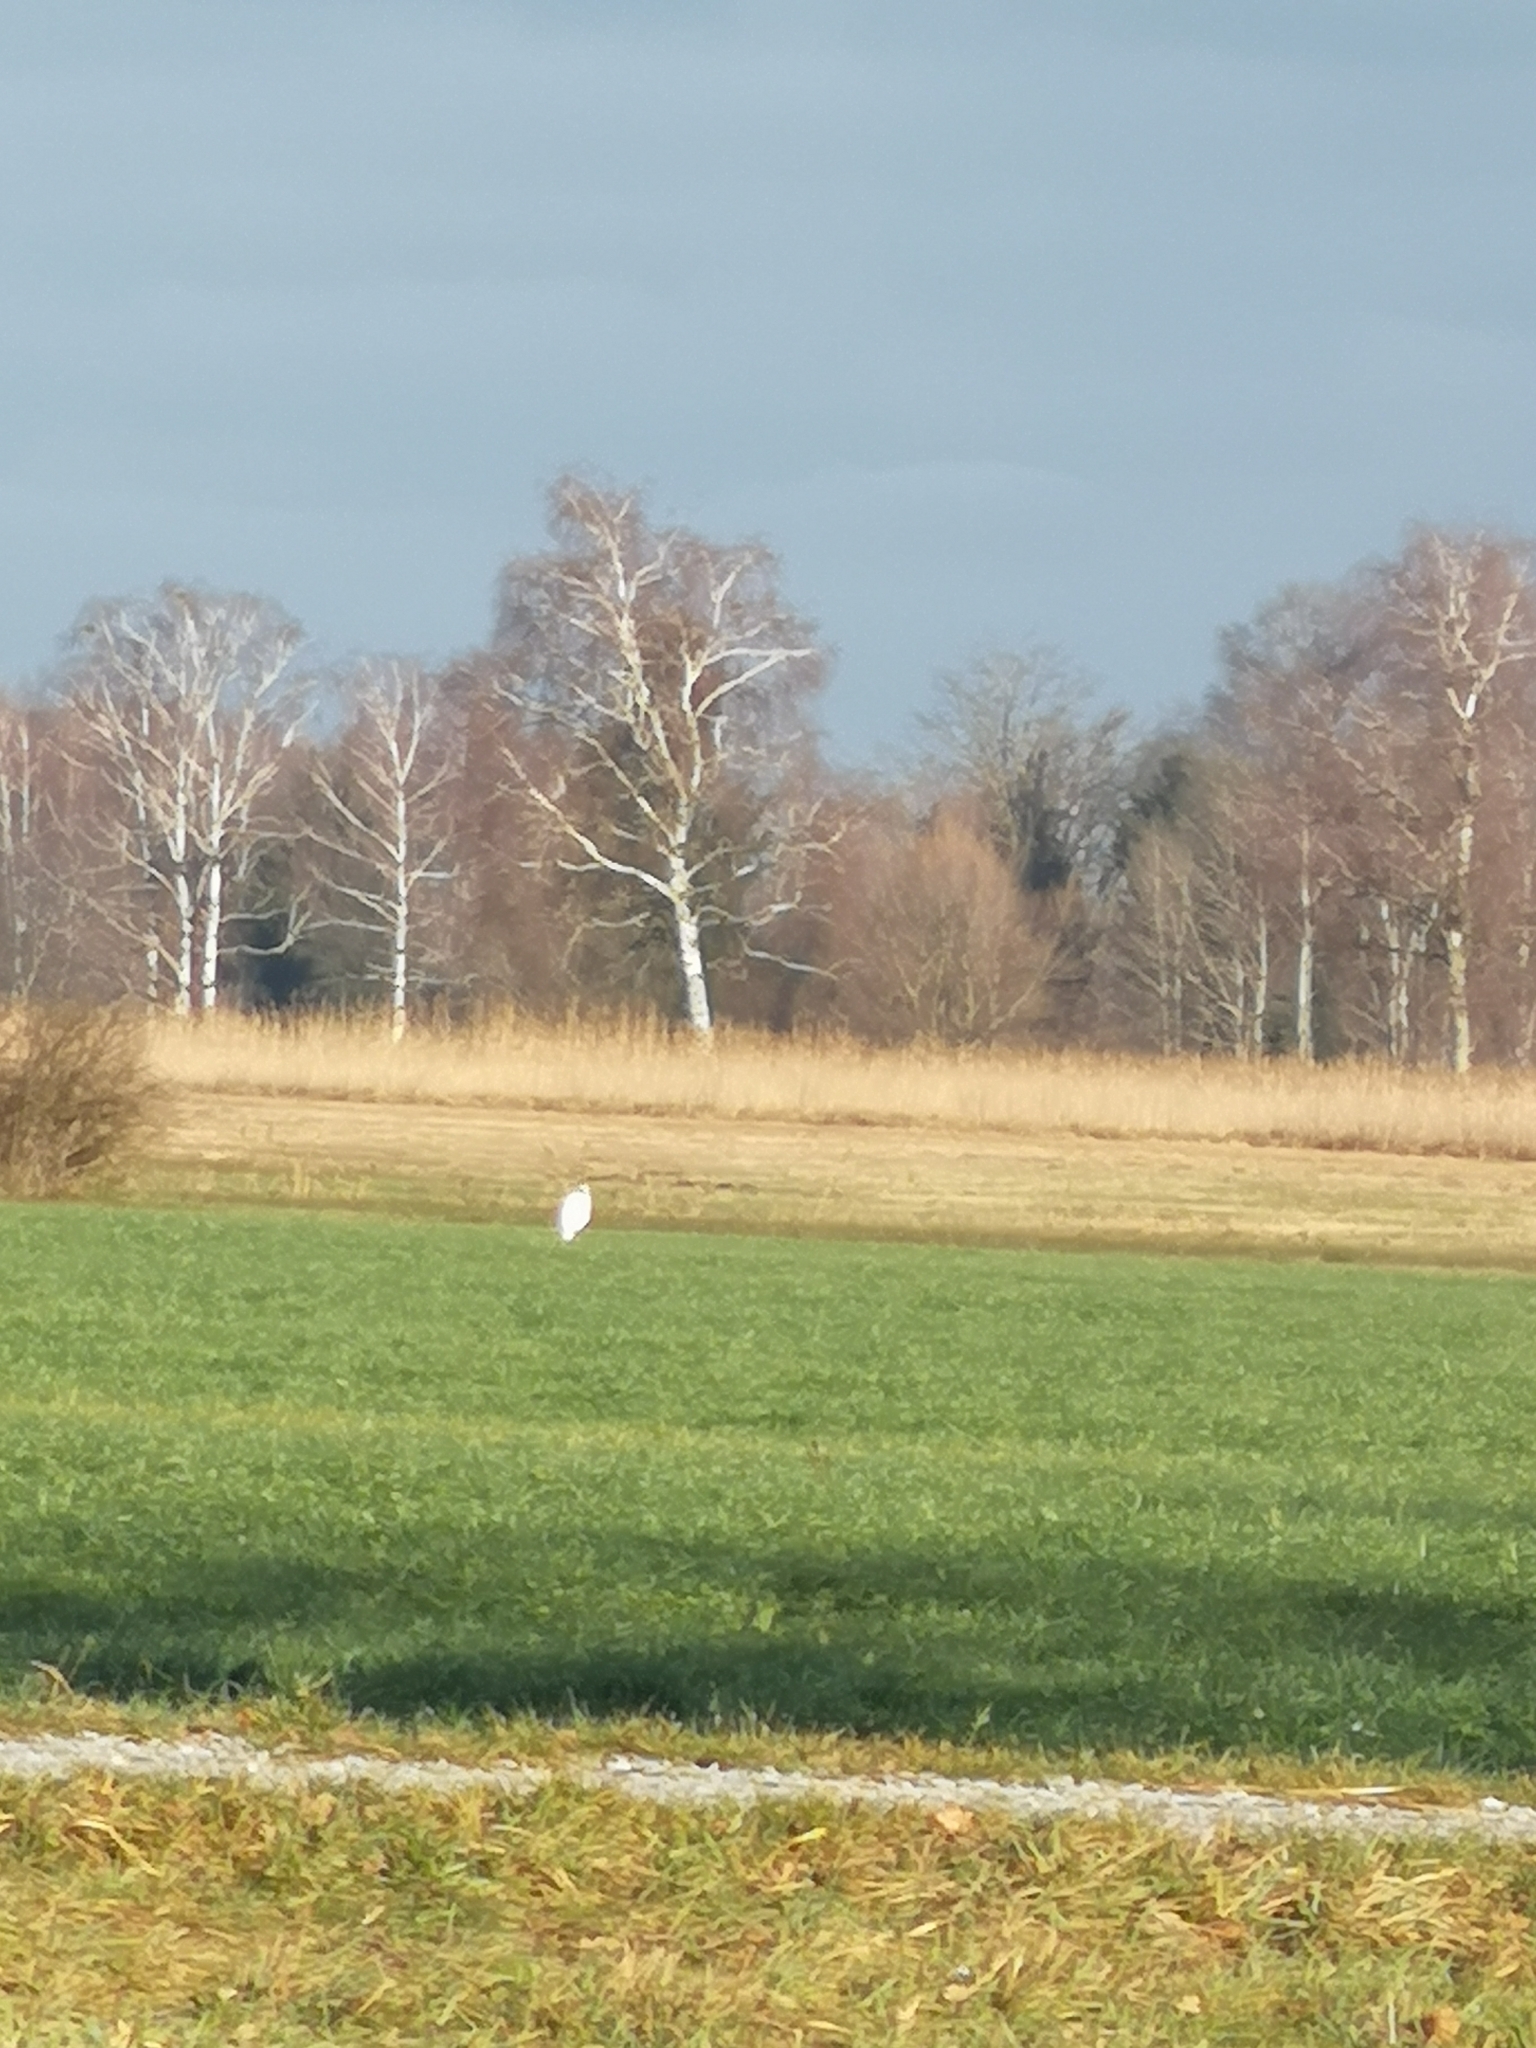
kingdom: Animalia
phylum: Chordata
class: Aves
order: Pelecaniformes
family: Ardeidae
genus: Ardea
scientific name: Ardea alba
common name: Great egret
